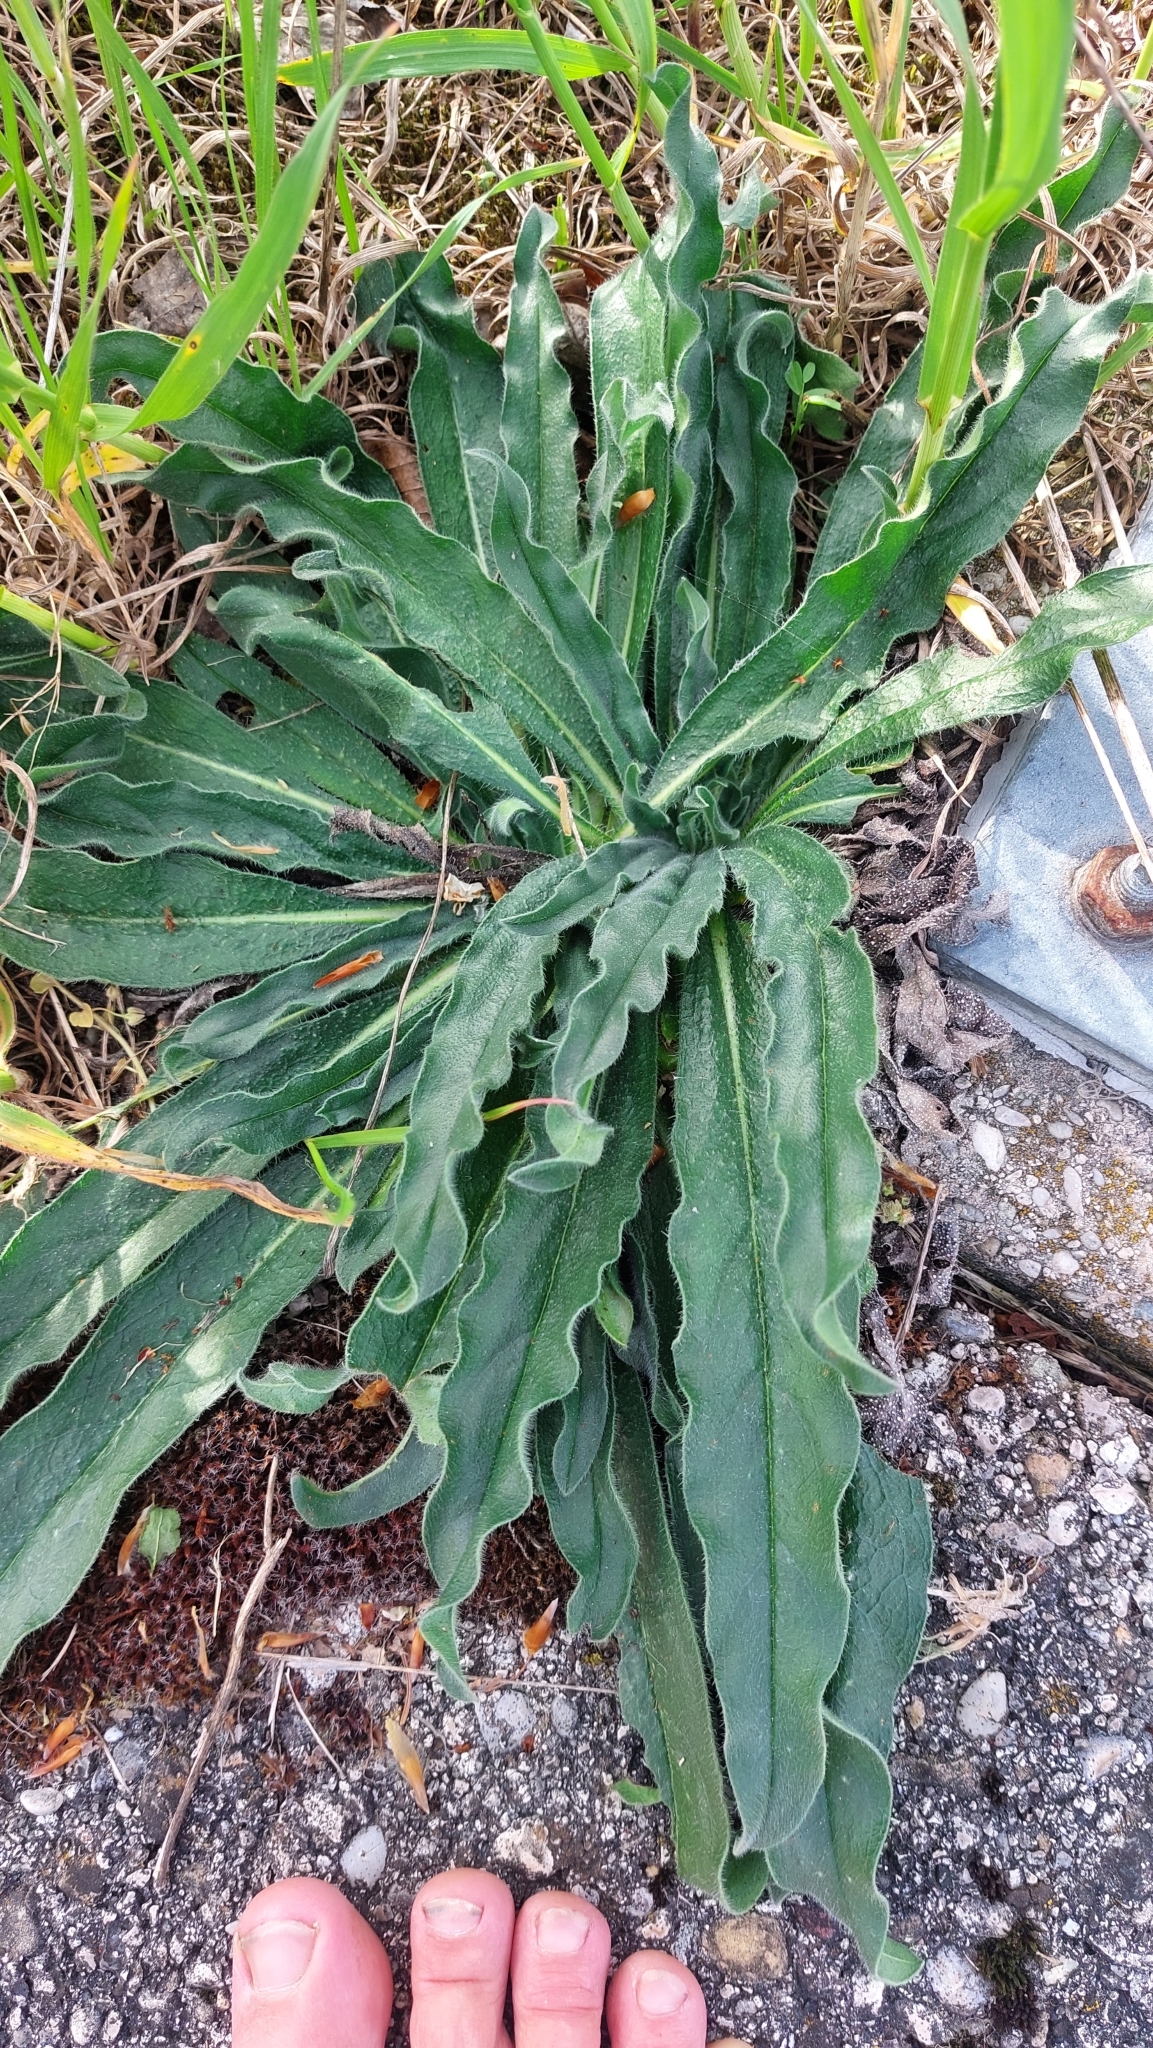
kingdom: Plantae
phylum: Tracheophyta
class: Magnoliopsida
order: Boraginales
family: Boraginaceae
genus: Echium
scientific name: Echium vulgare
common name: Common viper's bugloss
